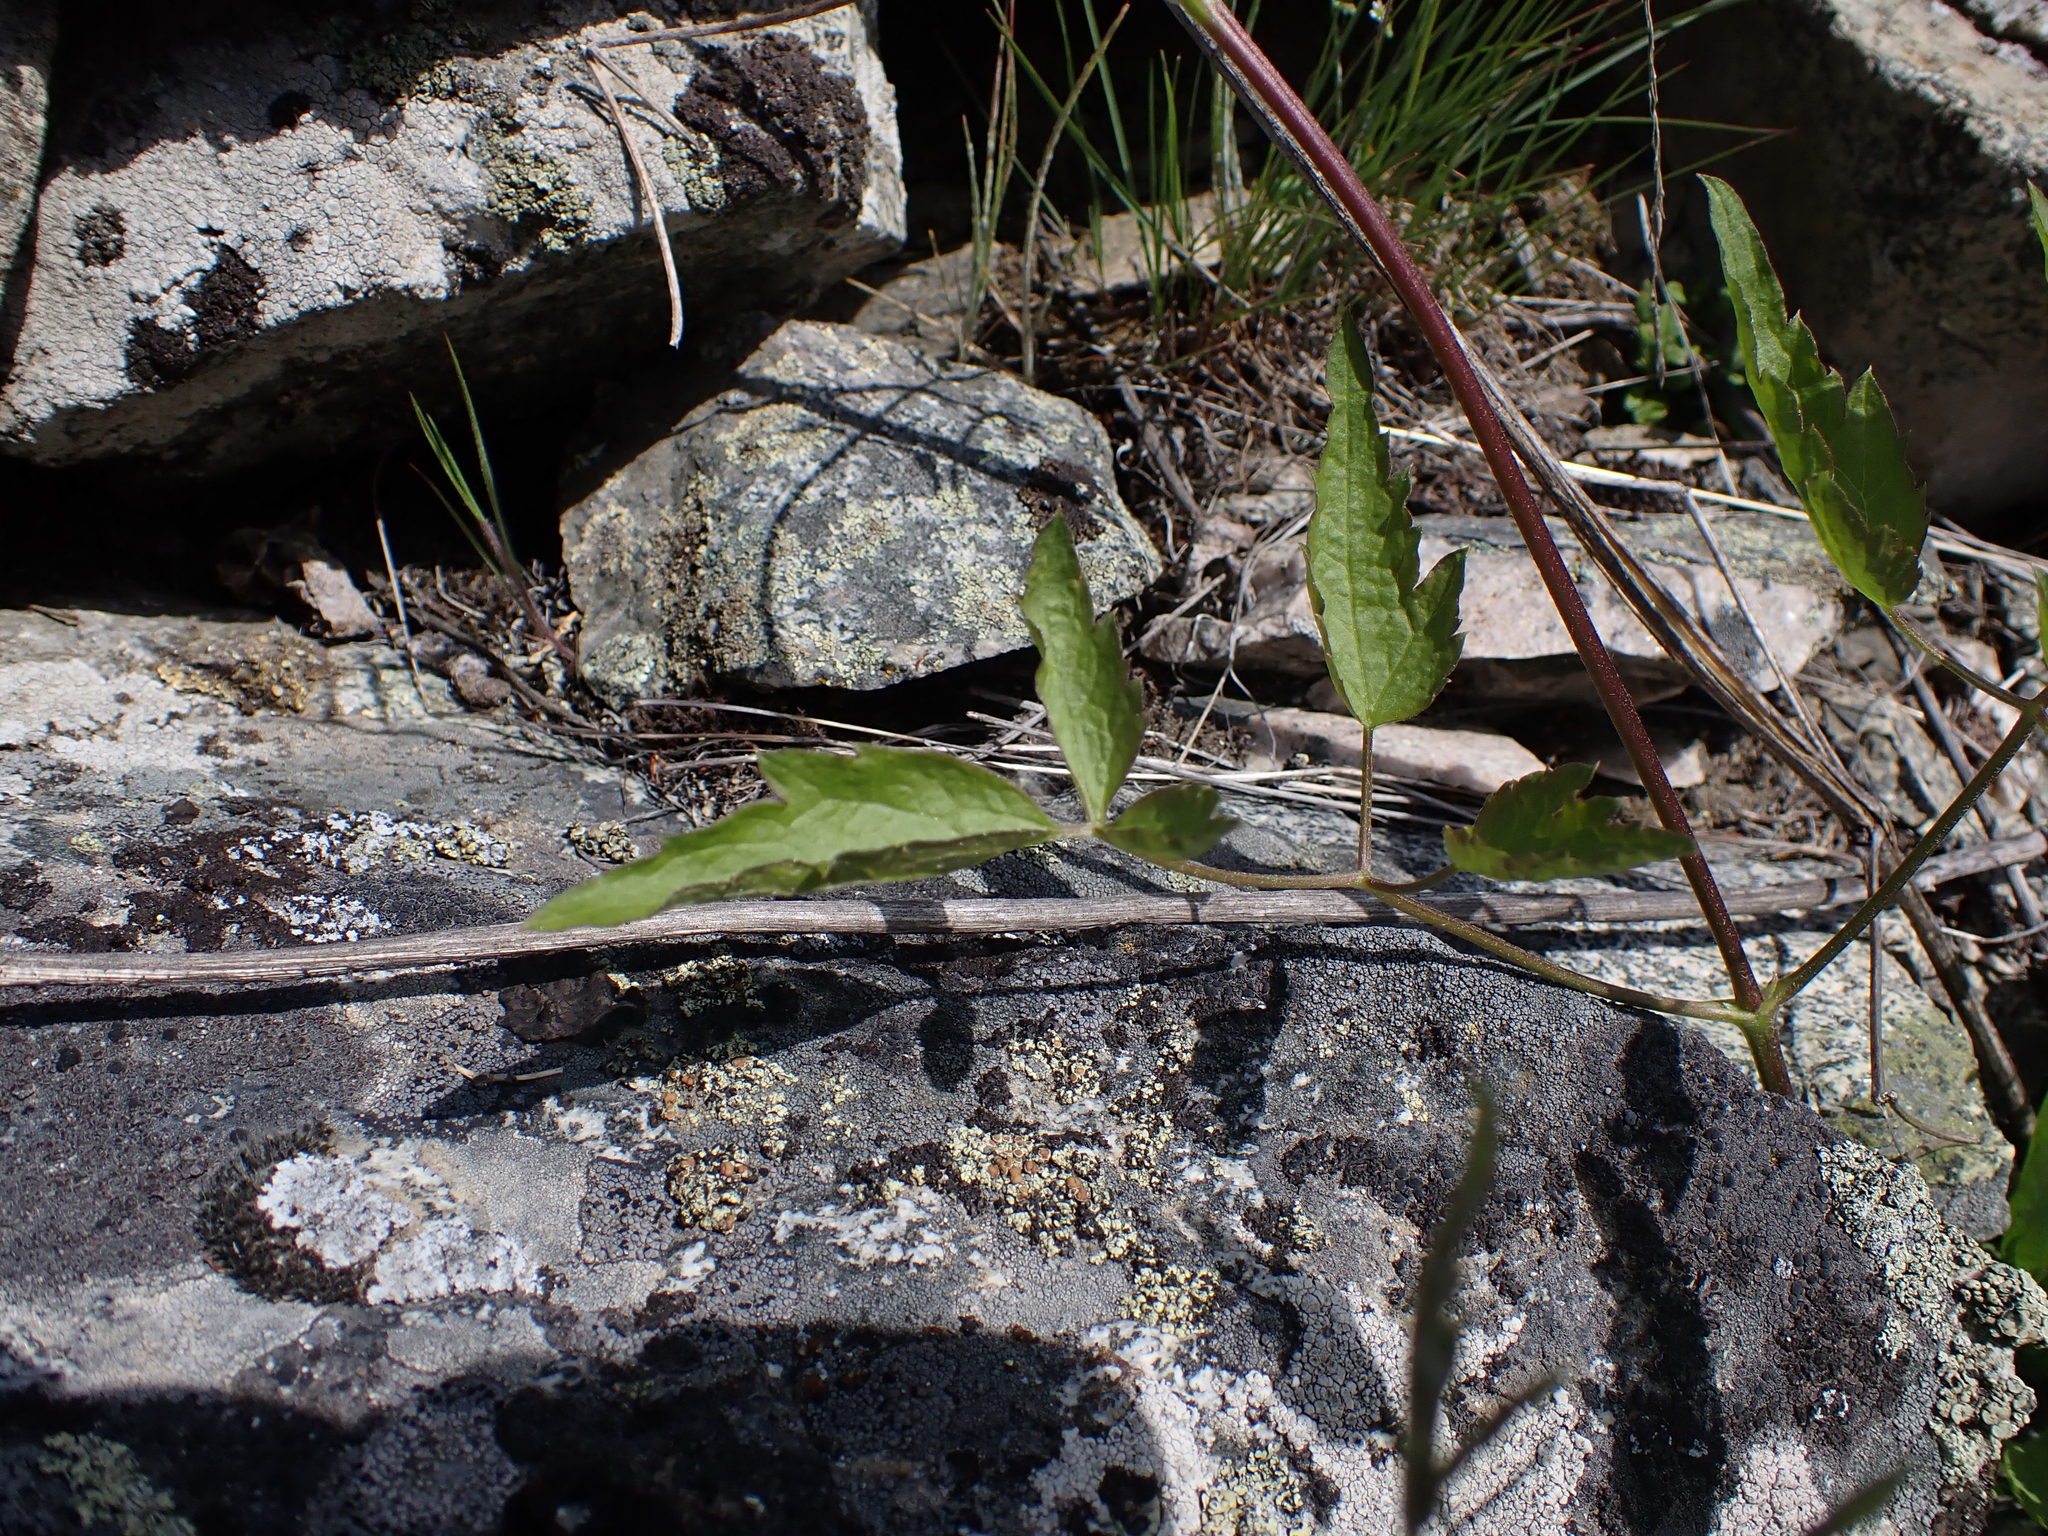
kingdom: Plantae
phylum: Tracheophyta
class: Magnoliopsida
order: Ranunculales
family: Ranunculaceae
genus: Clematis
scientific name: Clematis ligusticifolia
